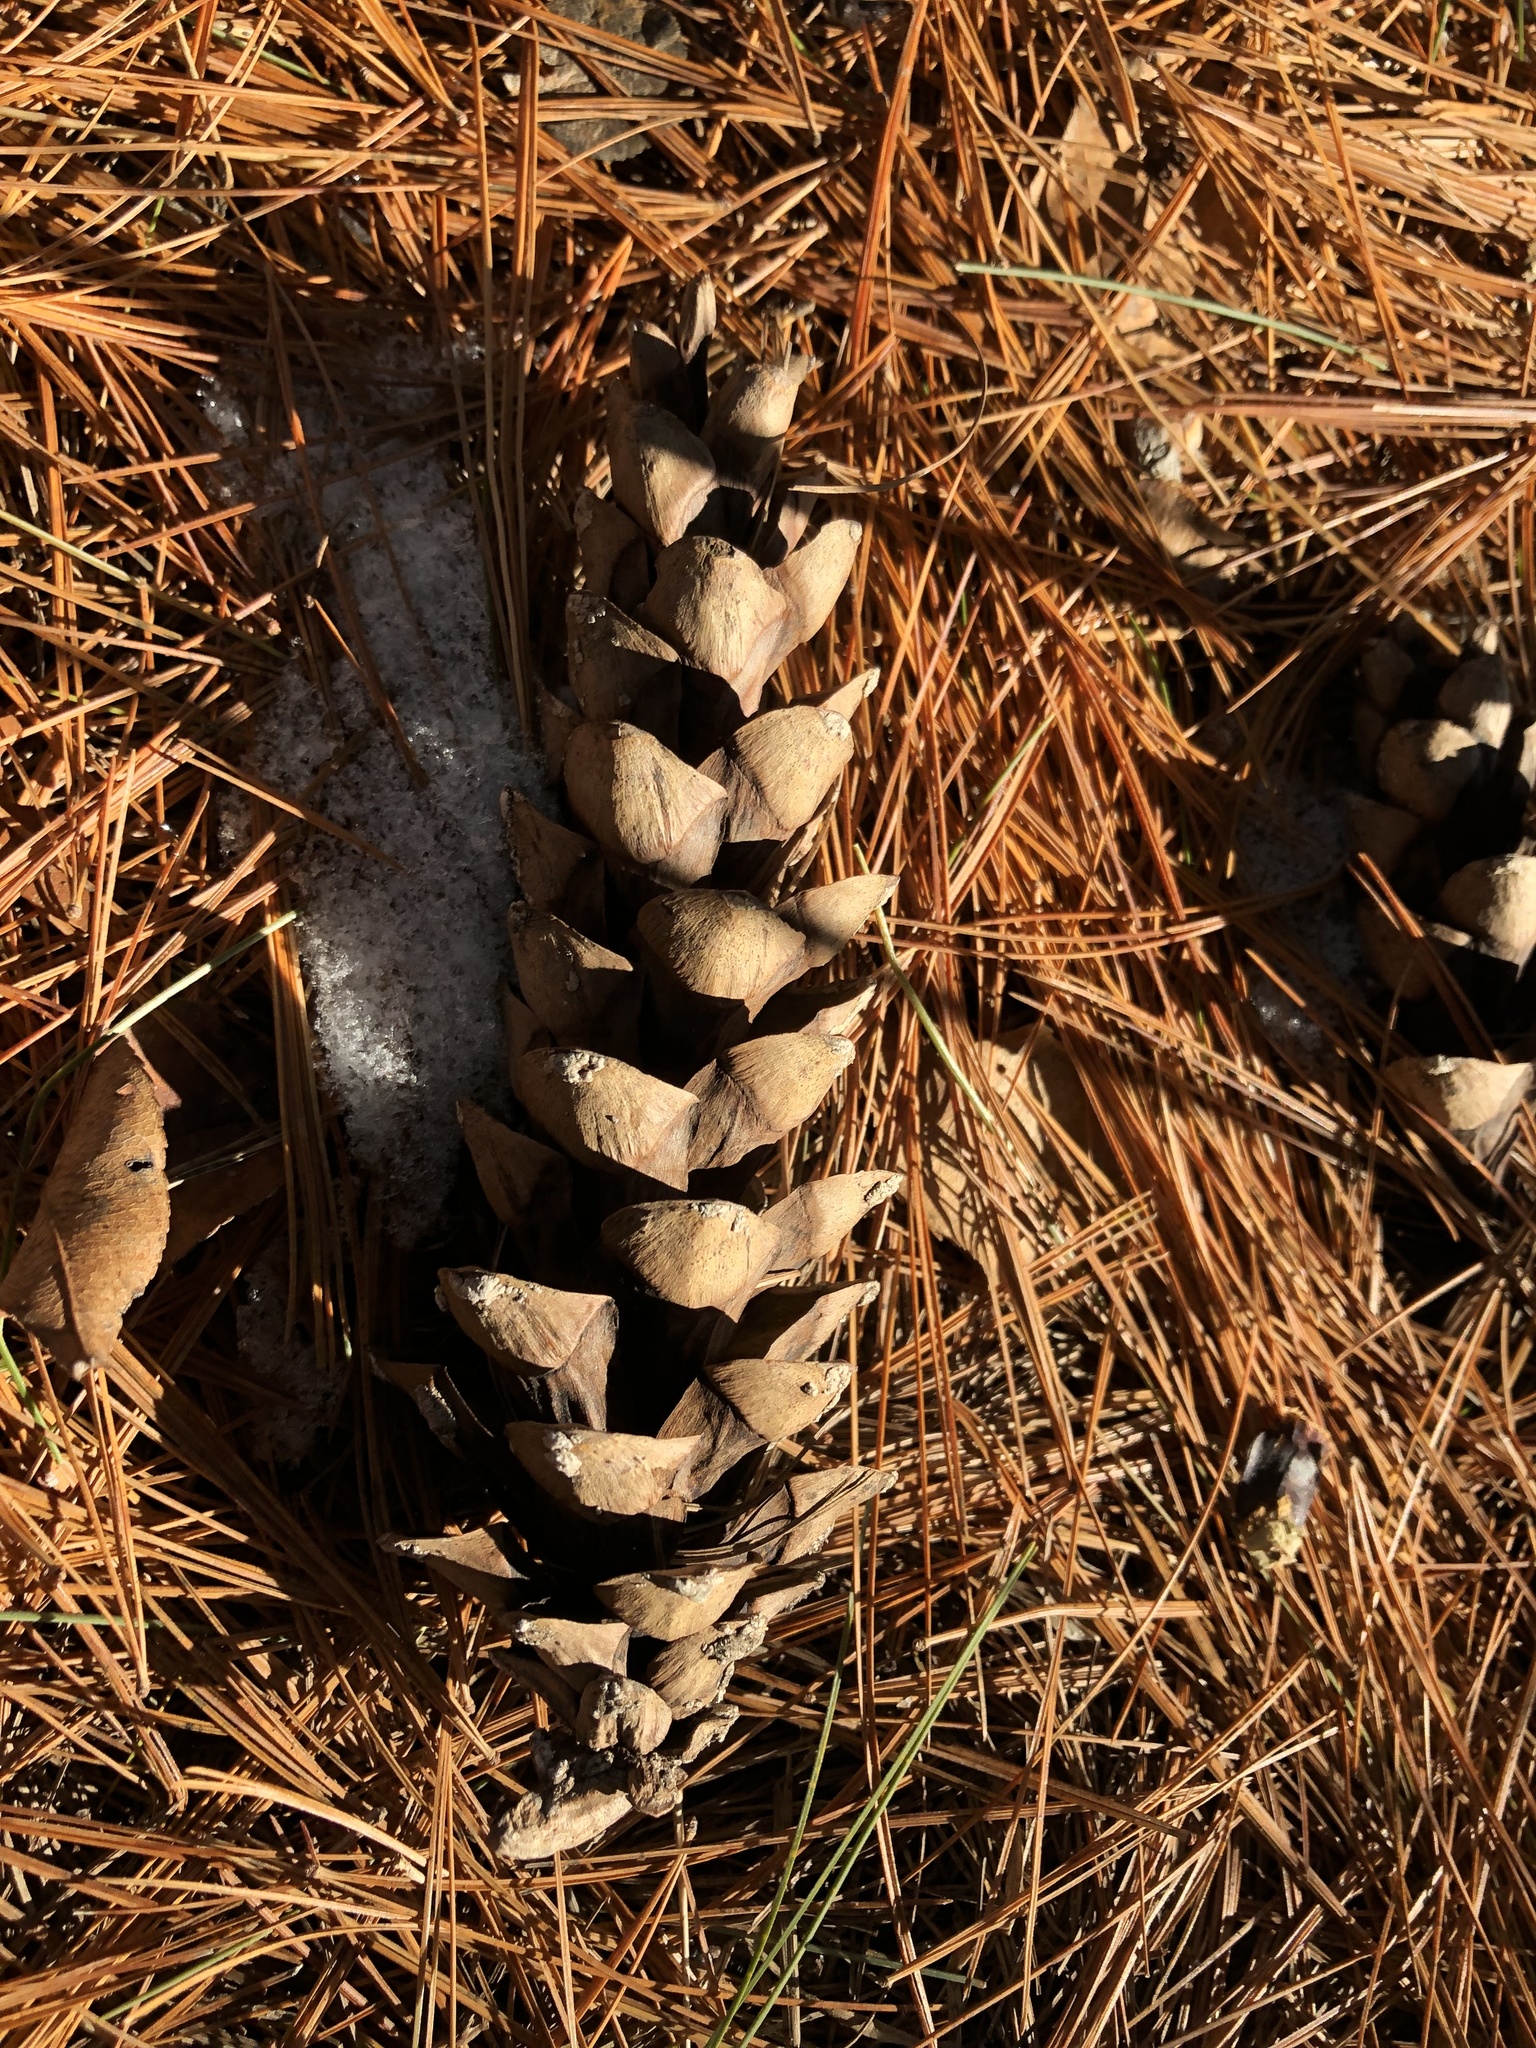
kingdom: Plantae
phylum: Tracheophyta
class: Pinopsida
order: Pinales
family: Pinaceae
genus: Pinus
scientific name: Pinus strobus
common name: Weymouth pine
